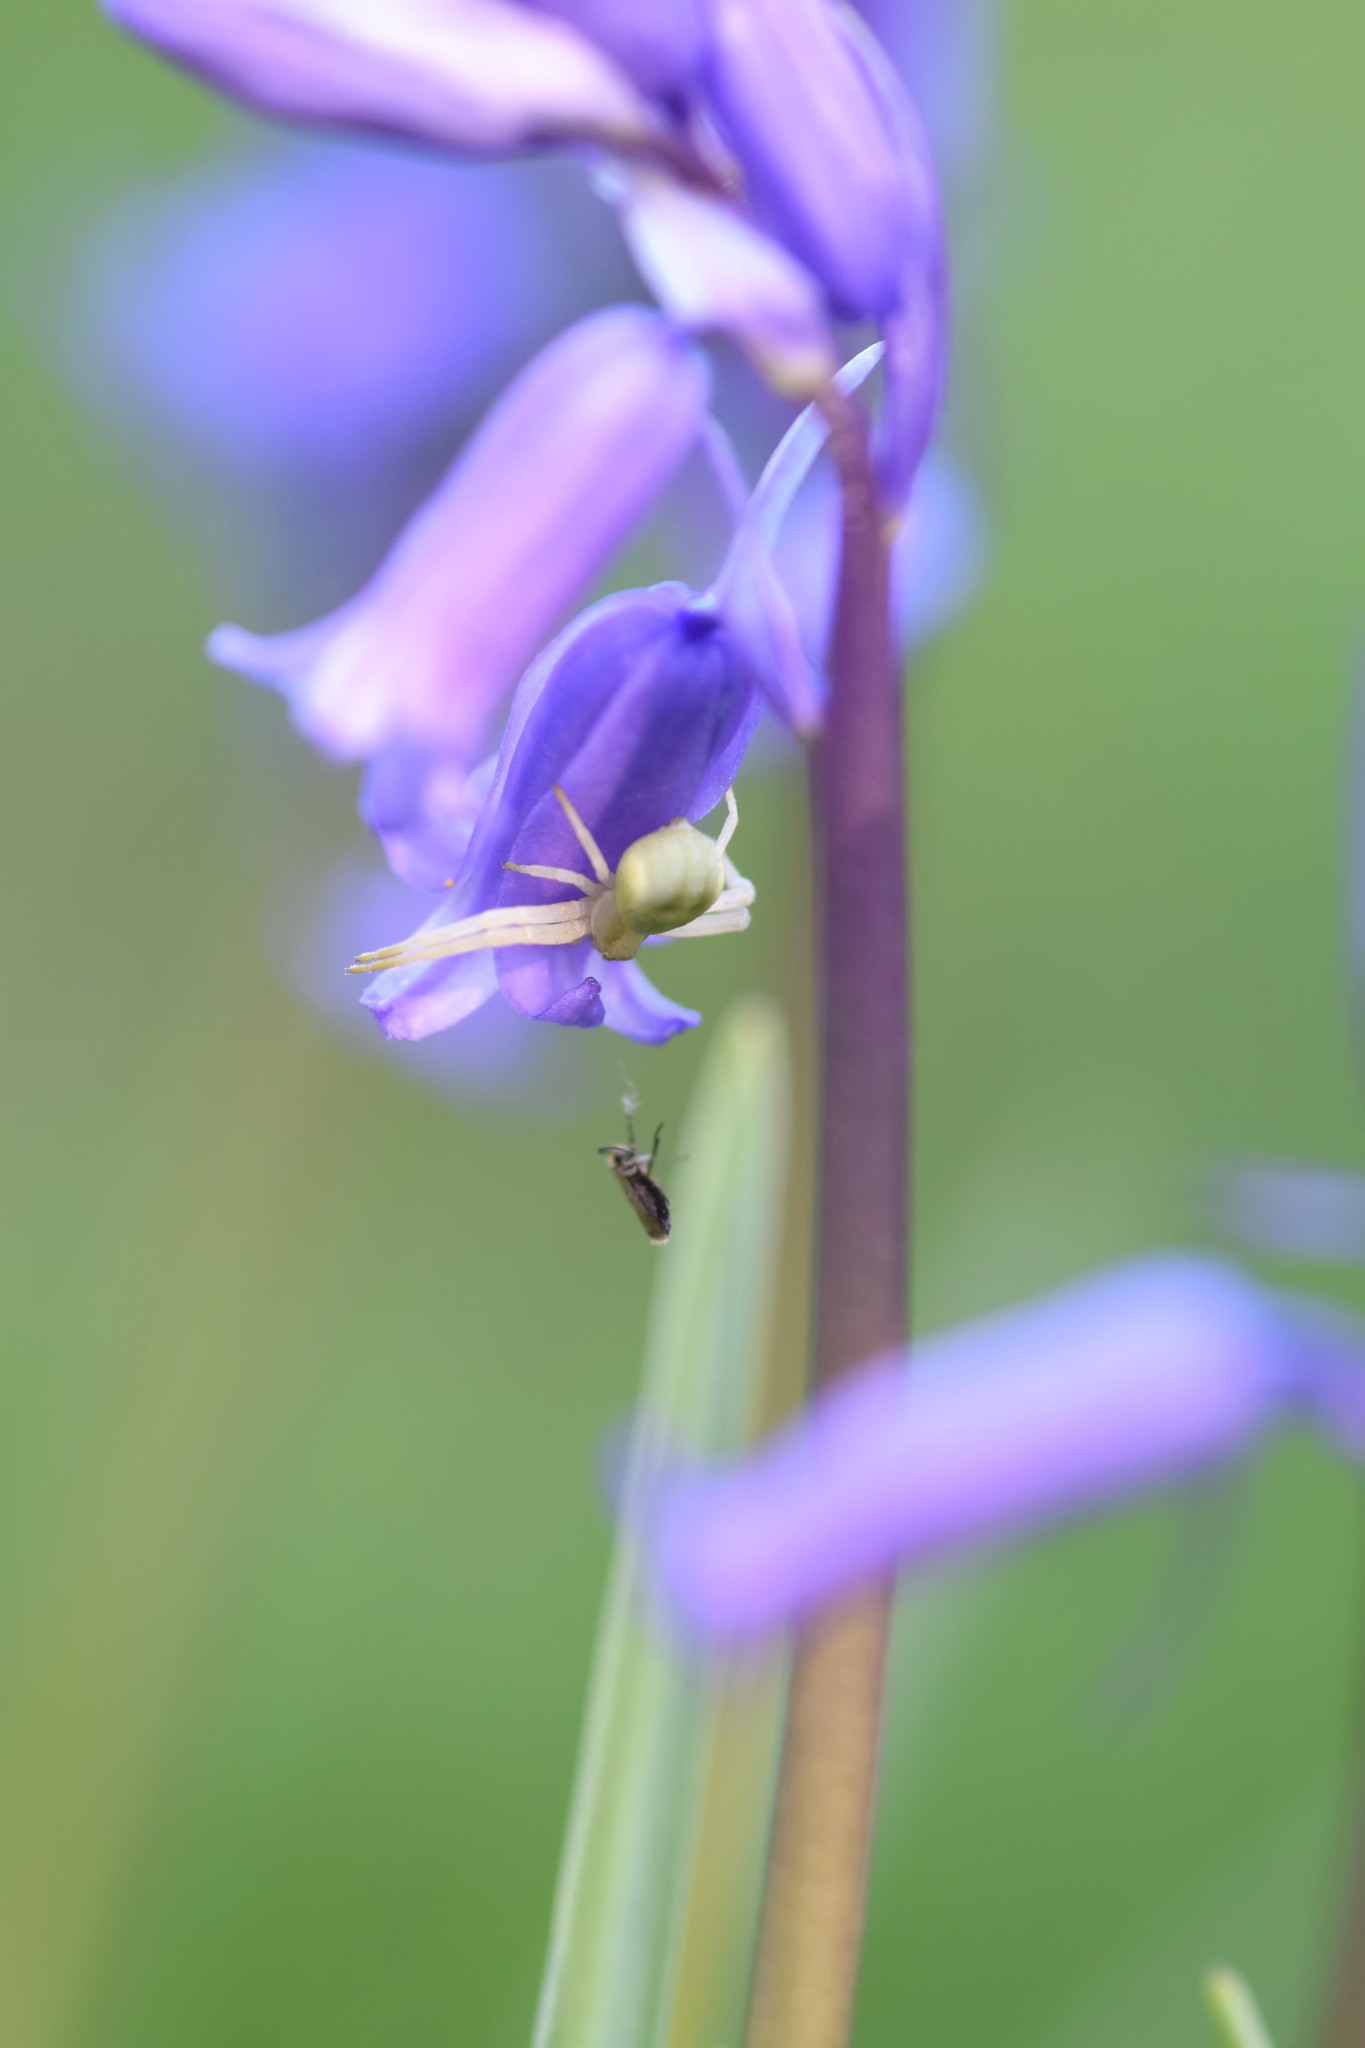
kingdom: Animalia
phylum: Arthropoda
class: Arachnida
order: Araneae
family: Thomisidae
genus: Misumena
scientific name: Misumena vatia
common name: Goldenrod crab spider
